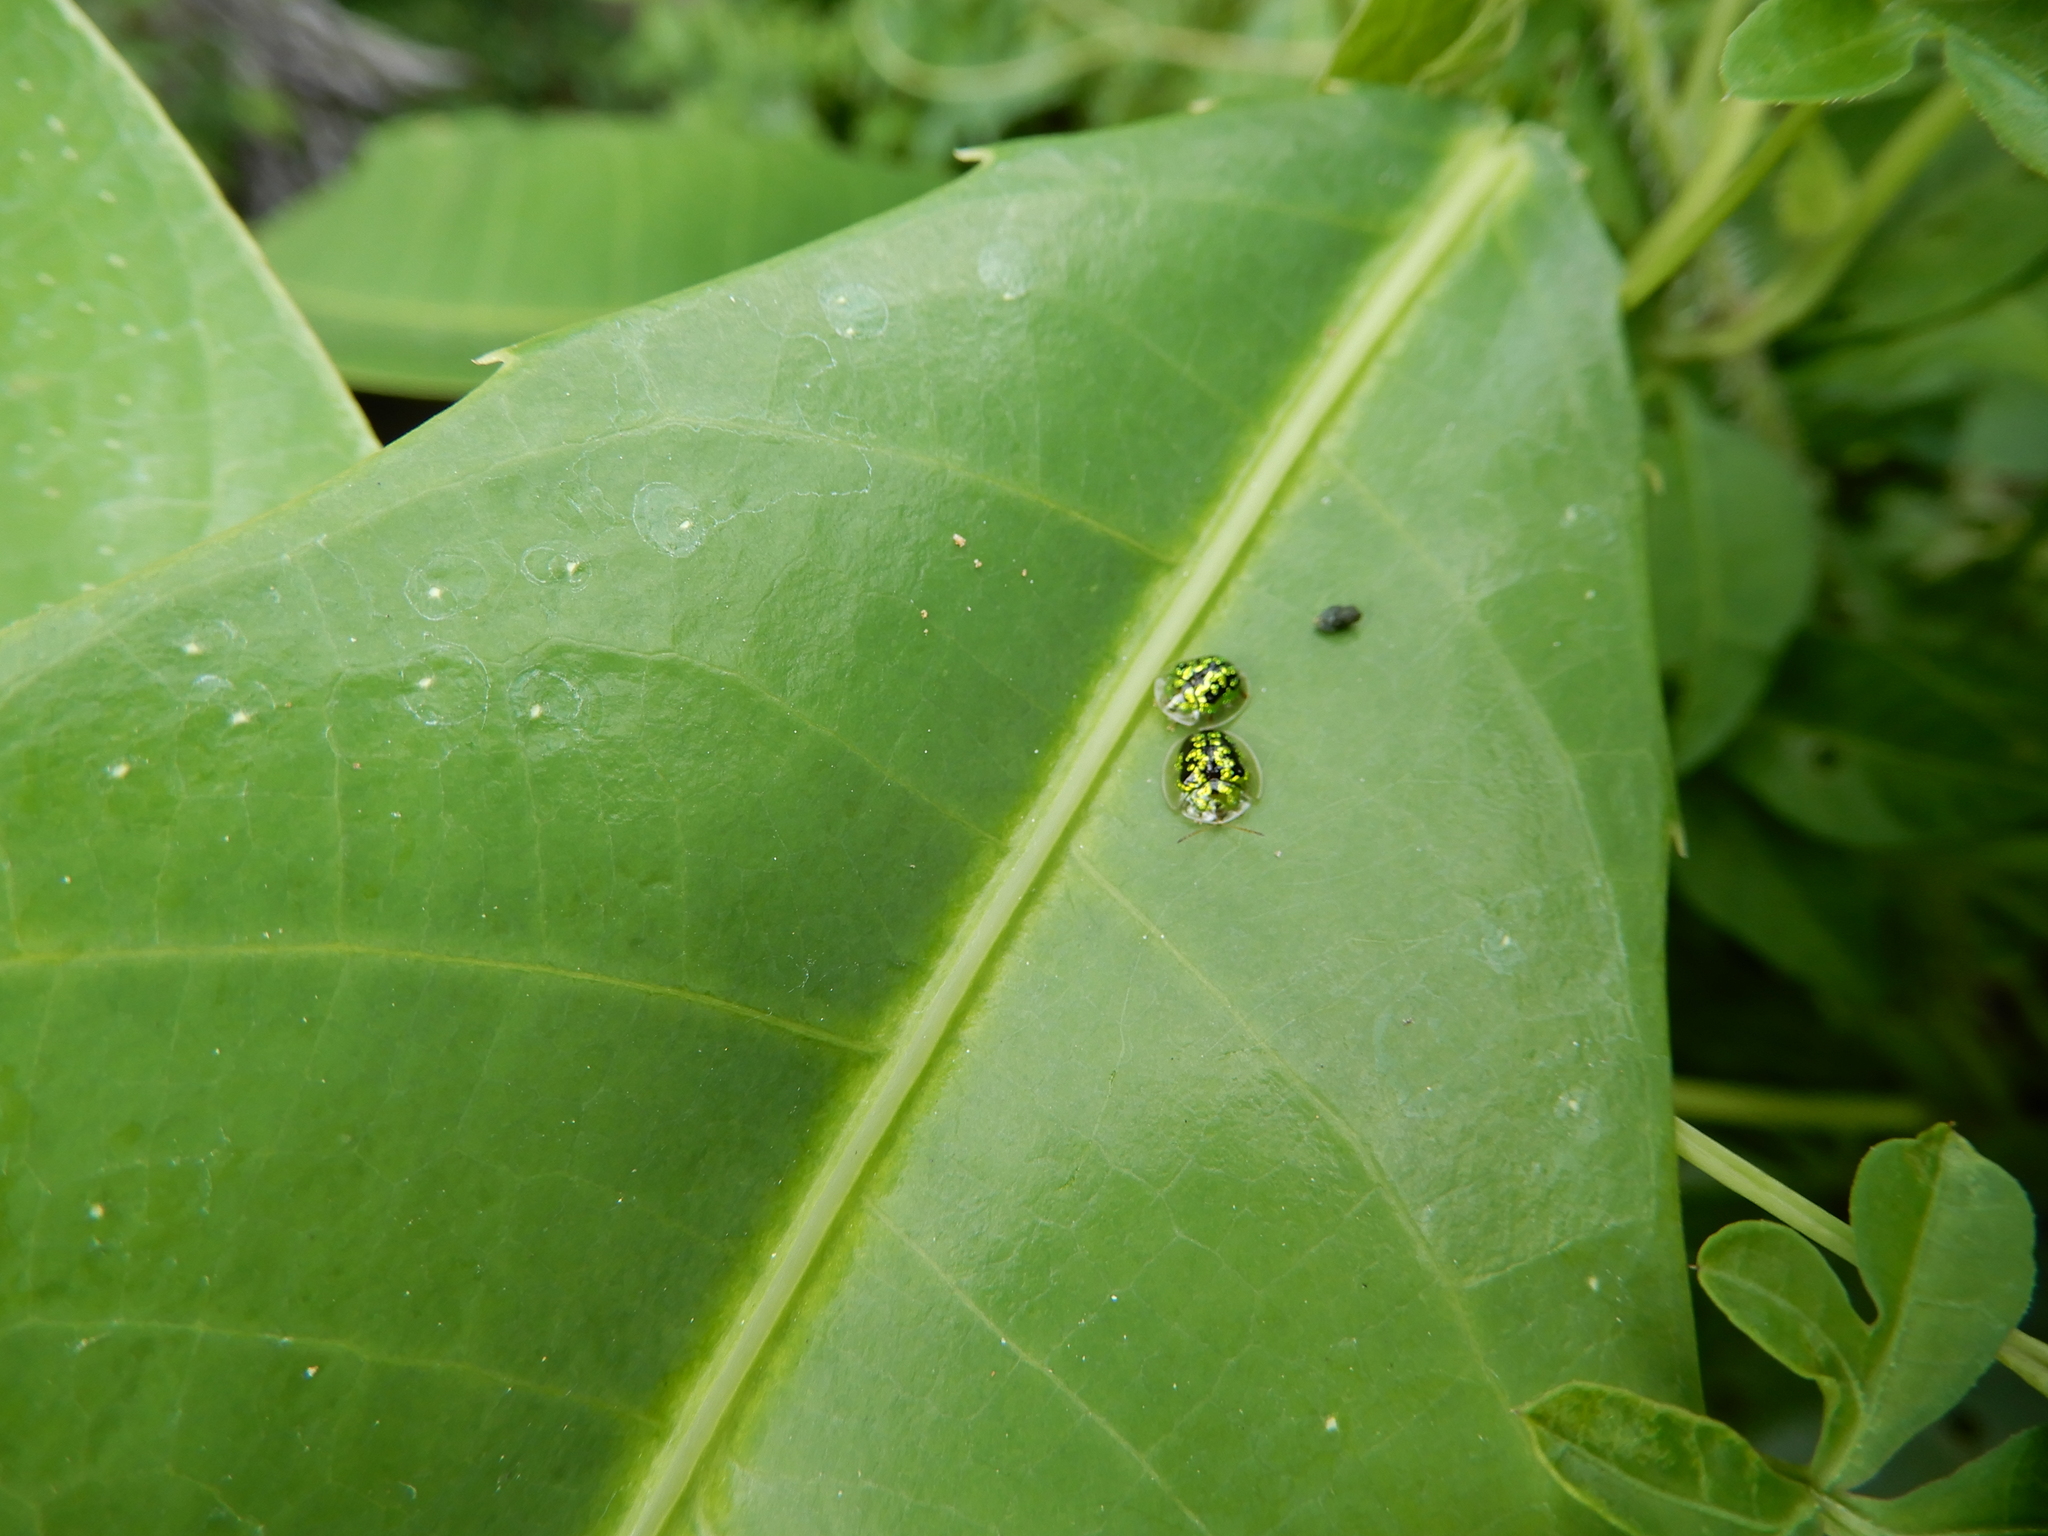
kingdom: Animalia
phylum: Arthropoda
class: Insecta
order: Coleoptera
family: Chrysomelidae
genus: Cassida
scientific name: Cassida circumdata
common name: Tortoise beetle
